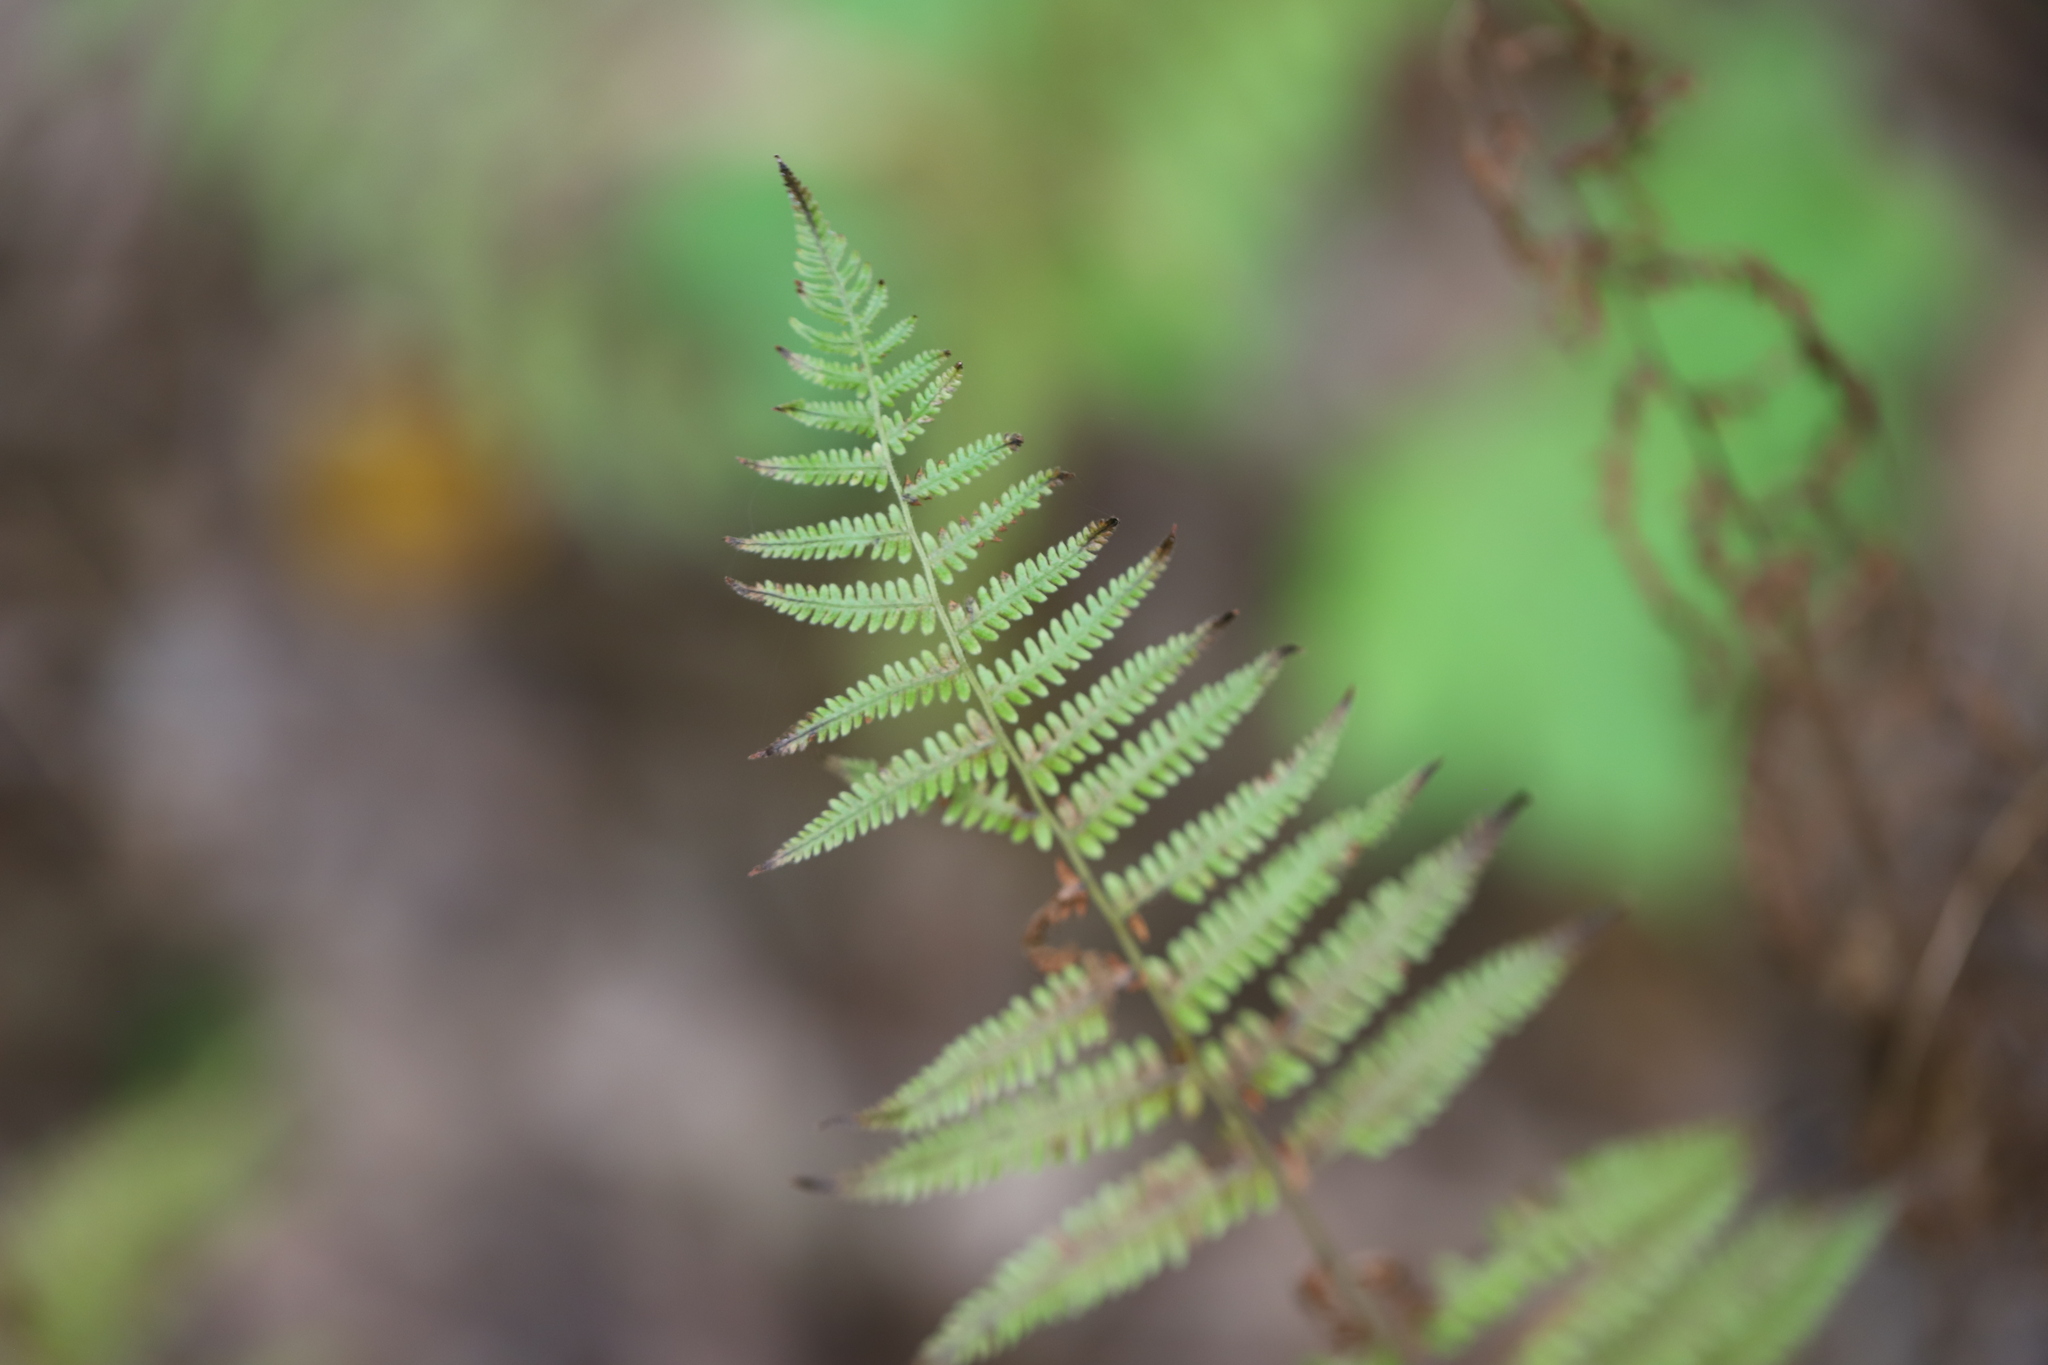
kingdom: Plantae
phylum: Tracheophyta
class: Polypodiopsida
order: Polypodiales
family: Thelypteridaceae
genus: Amauropelta
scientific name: Amauropelta noveboracensis
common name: New york fern
